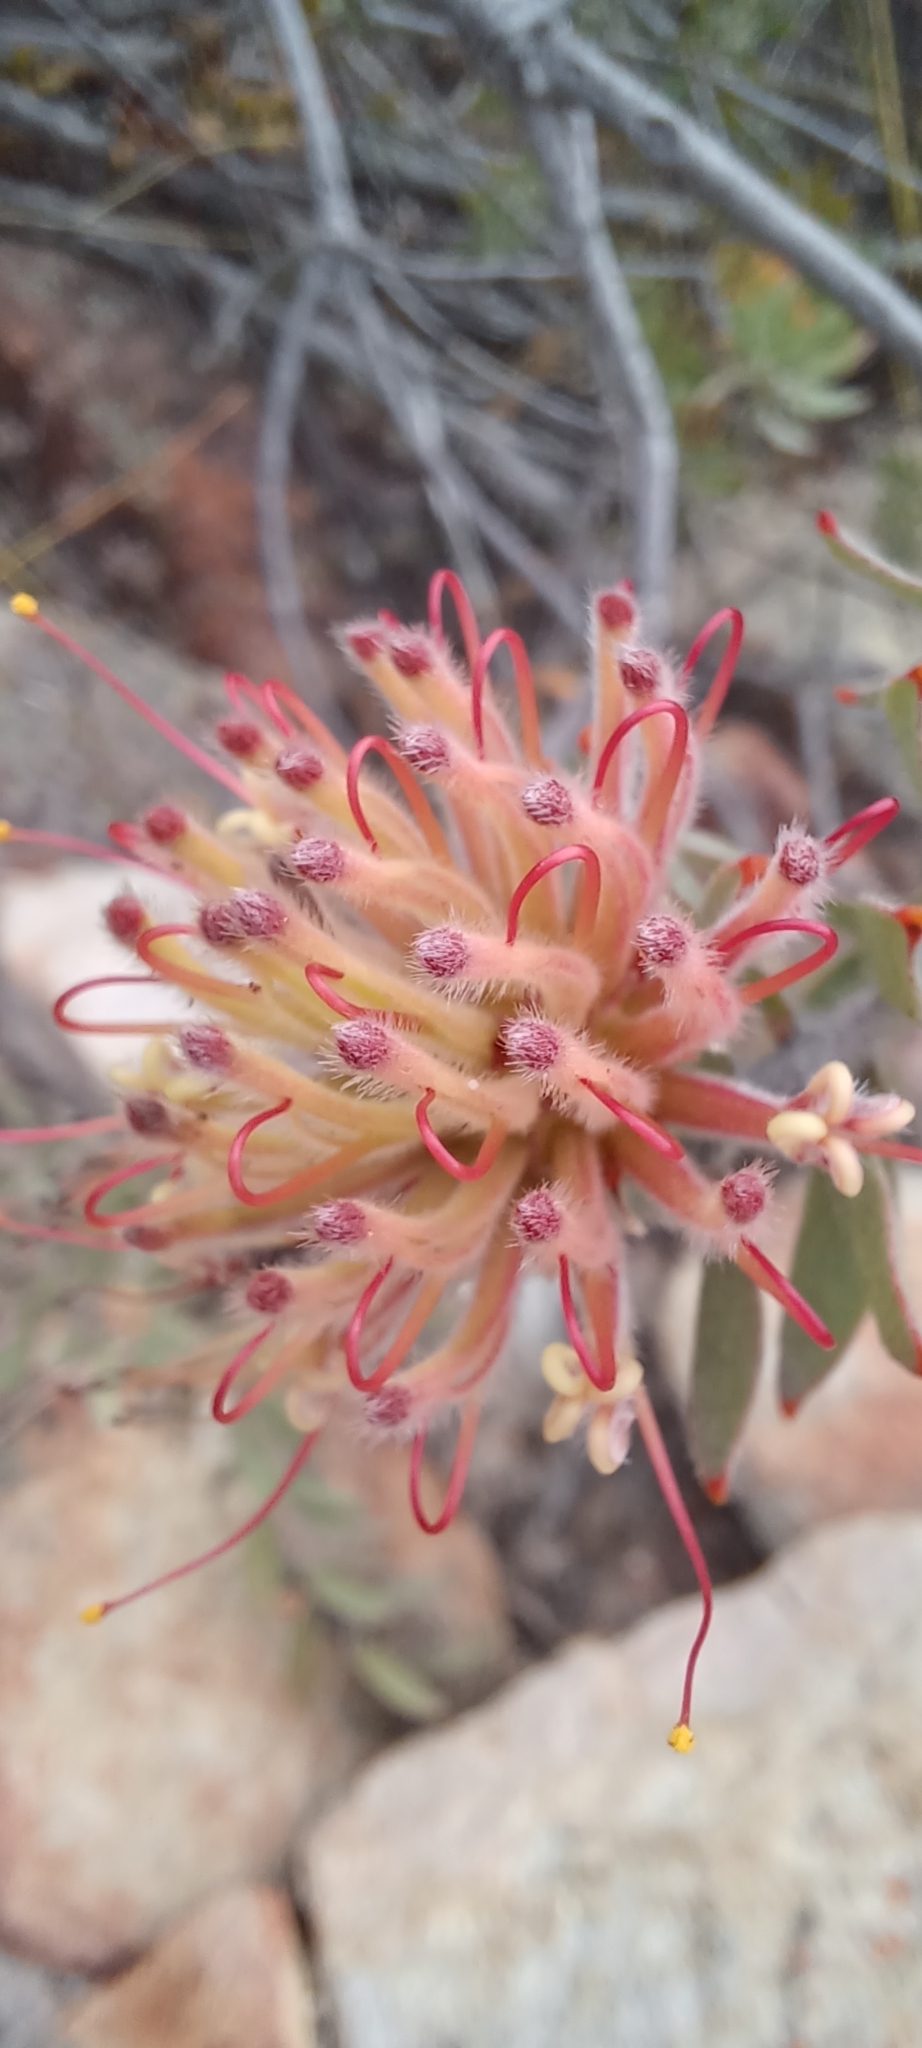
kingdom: Plantae
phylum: Tracheophyta
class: Magnoliopsida
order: Proteales
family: Proteaceae
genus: Leucospermum
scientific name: Leucospermum calligerum
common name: Arid pincushion
